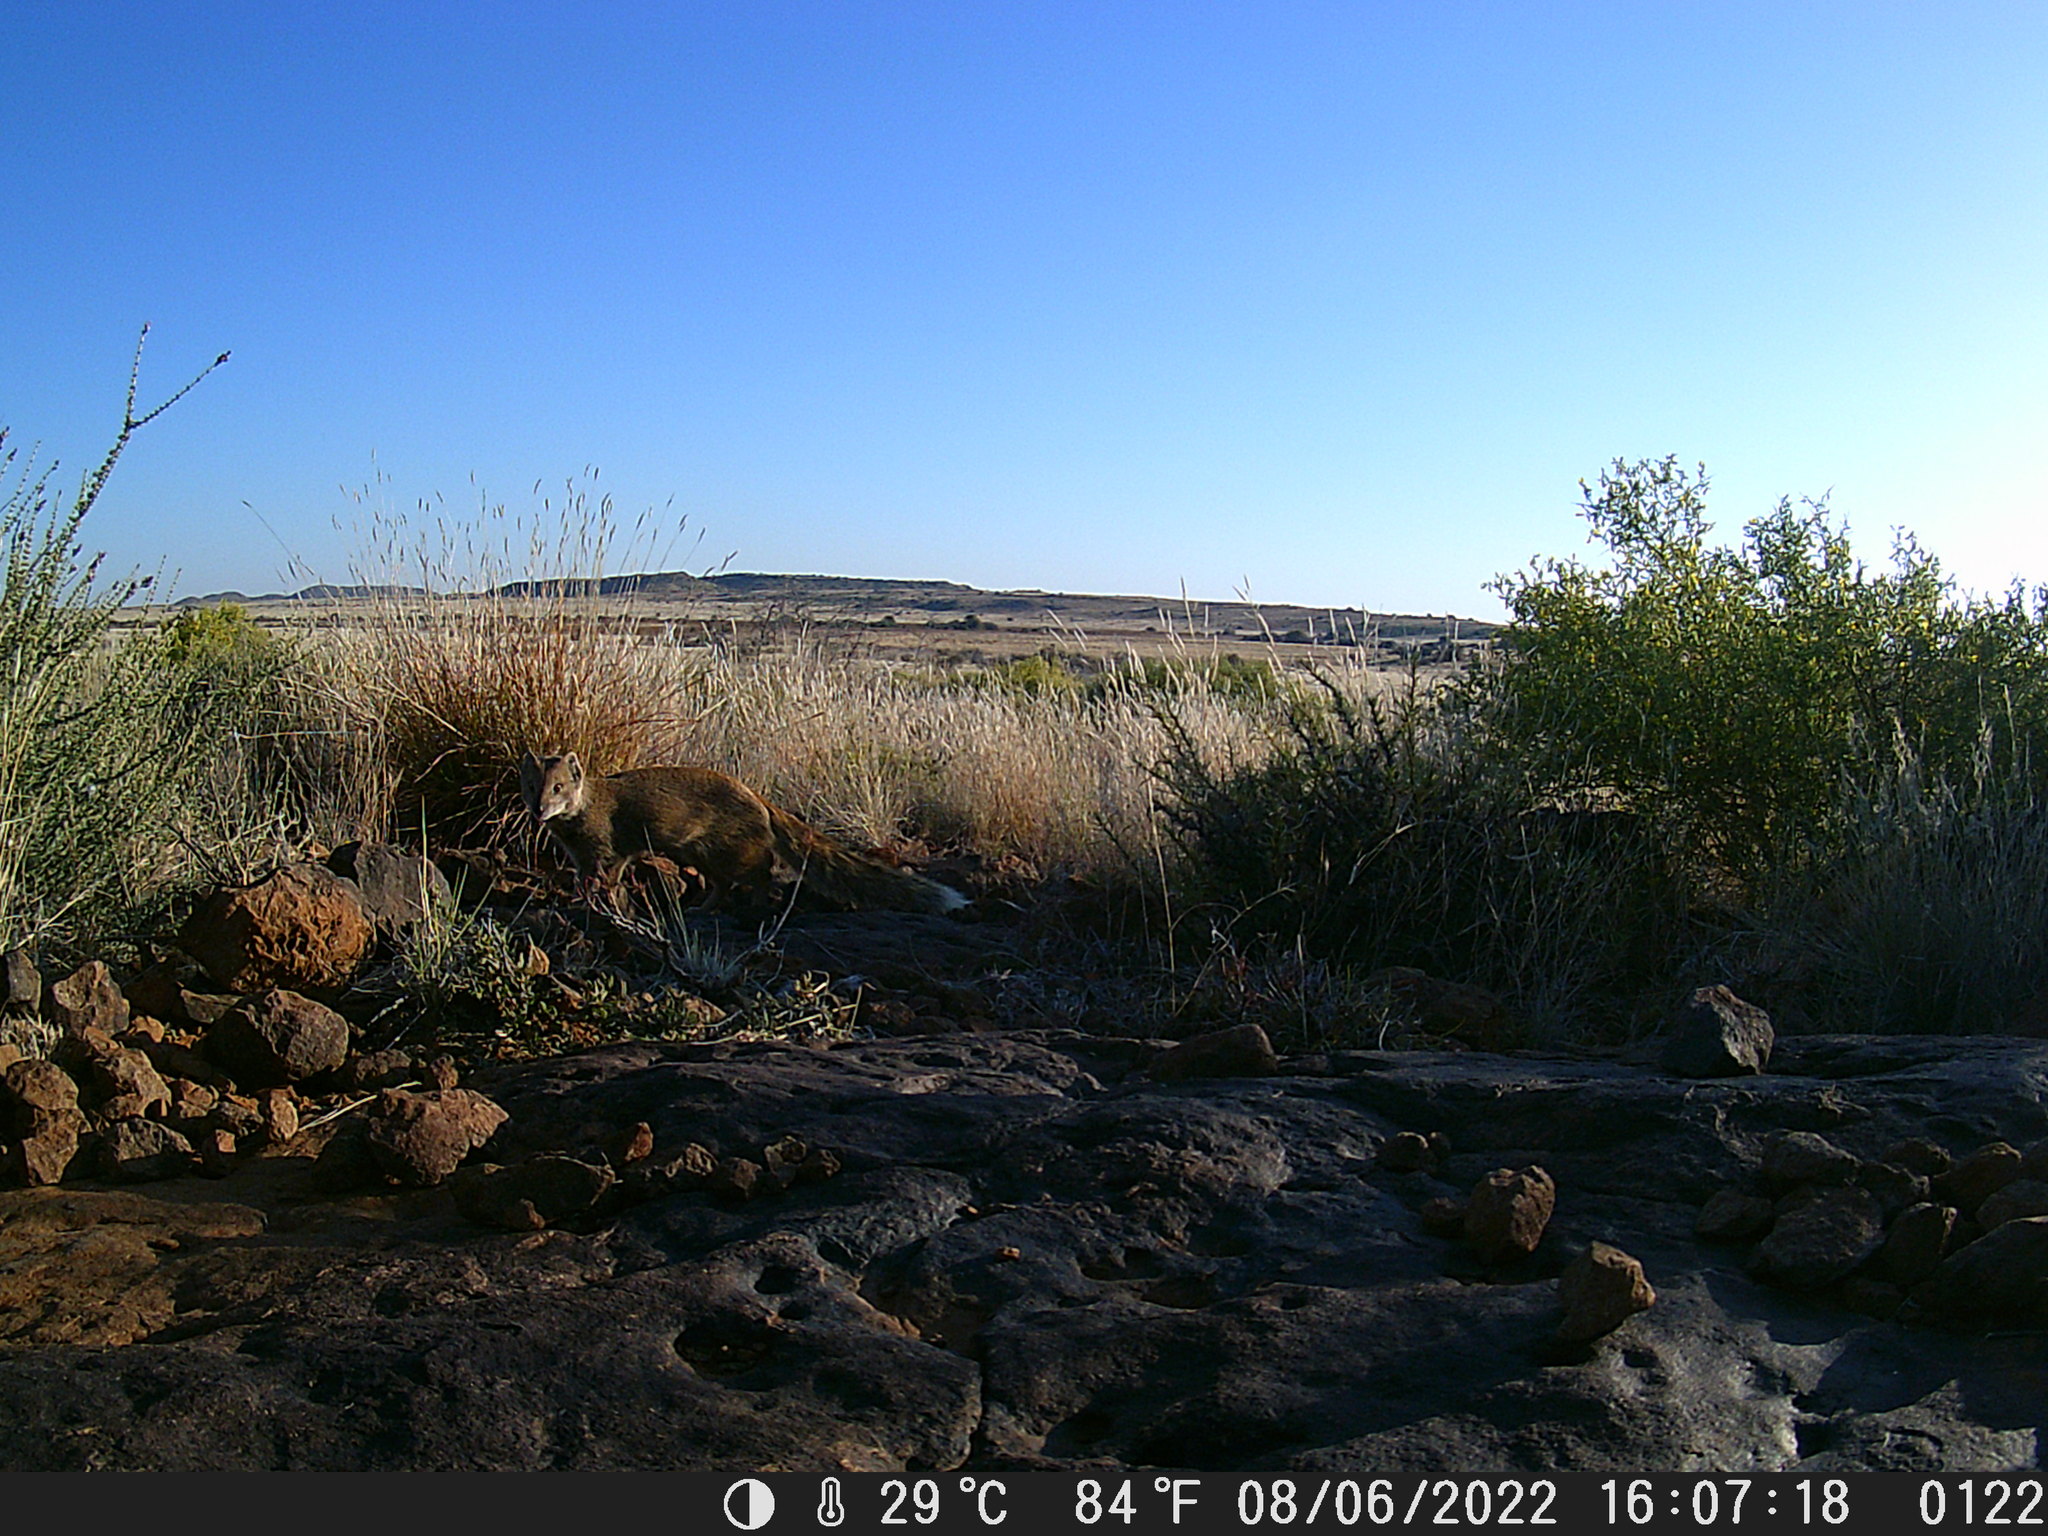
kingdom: Animalia
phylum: Chordata
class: Mammalia
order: Carnivora
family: Herpestidae
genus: Cynictis
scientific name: Cynictis penicillata
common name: Yellow mongoose
